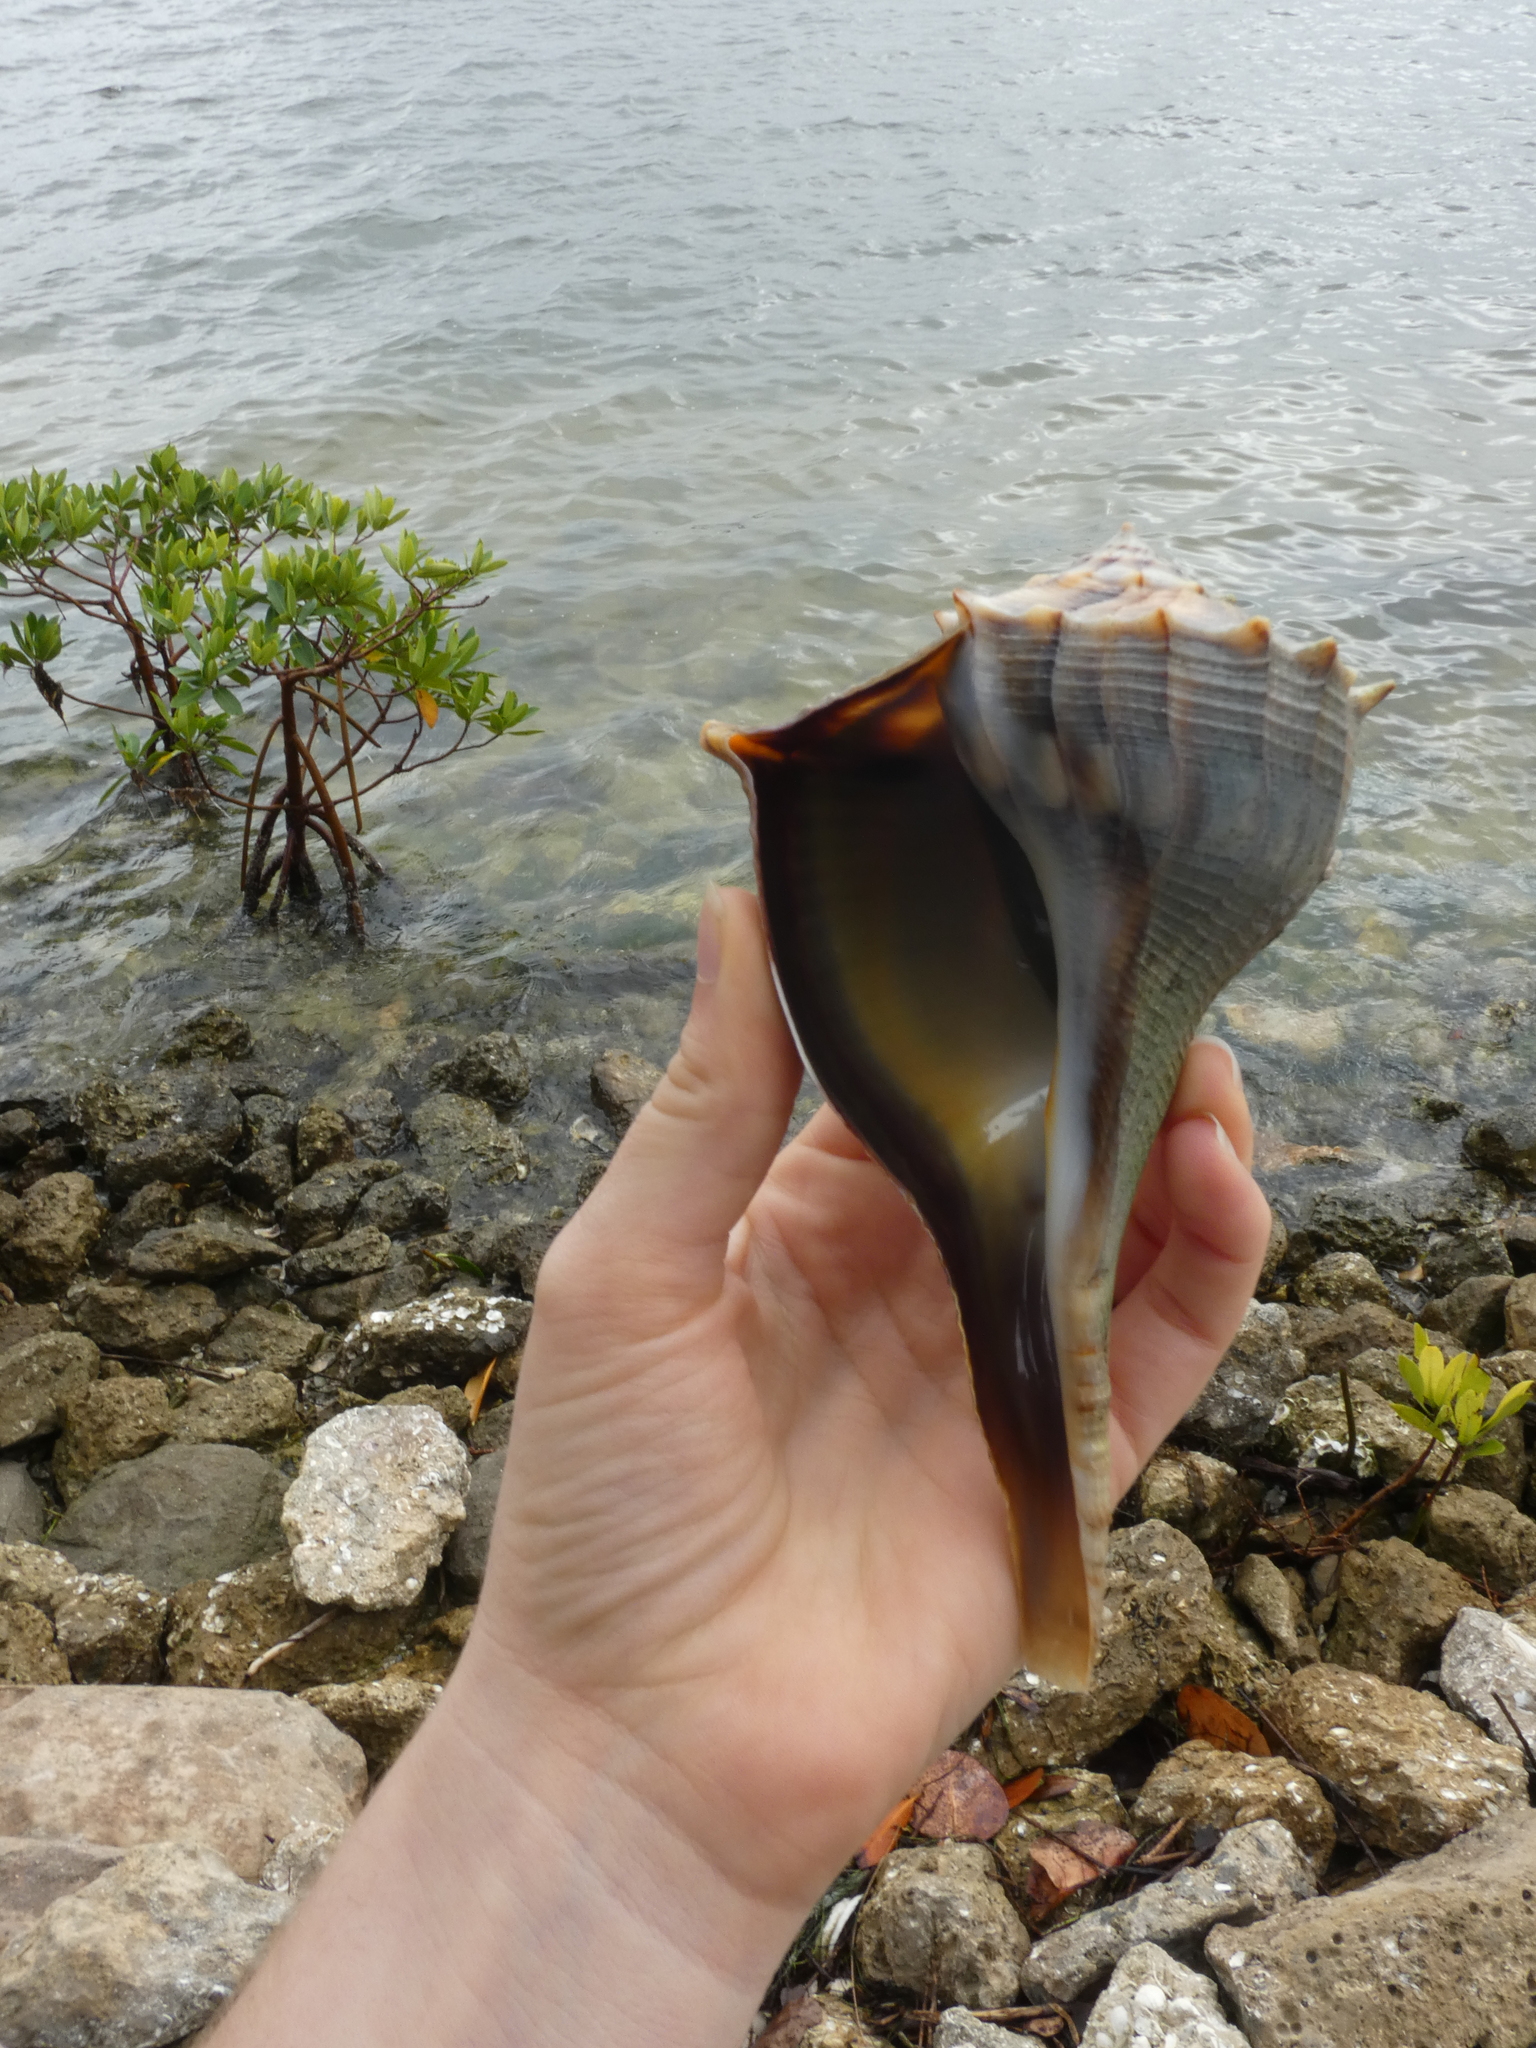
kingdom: Animalia
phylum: Mollusca
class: Gastropoda
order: Neogastropoda
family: Busyconidae
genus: Sinistrofulgur
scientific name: Sinistrofulgur sinistrum
